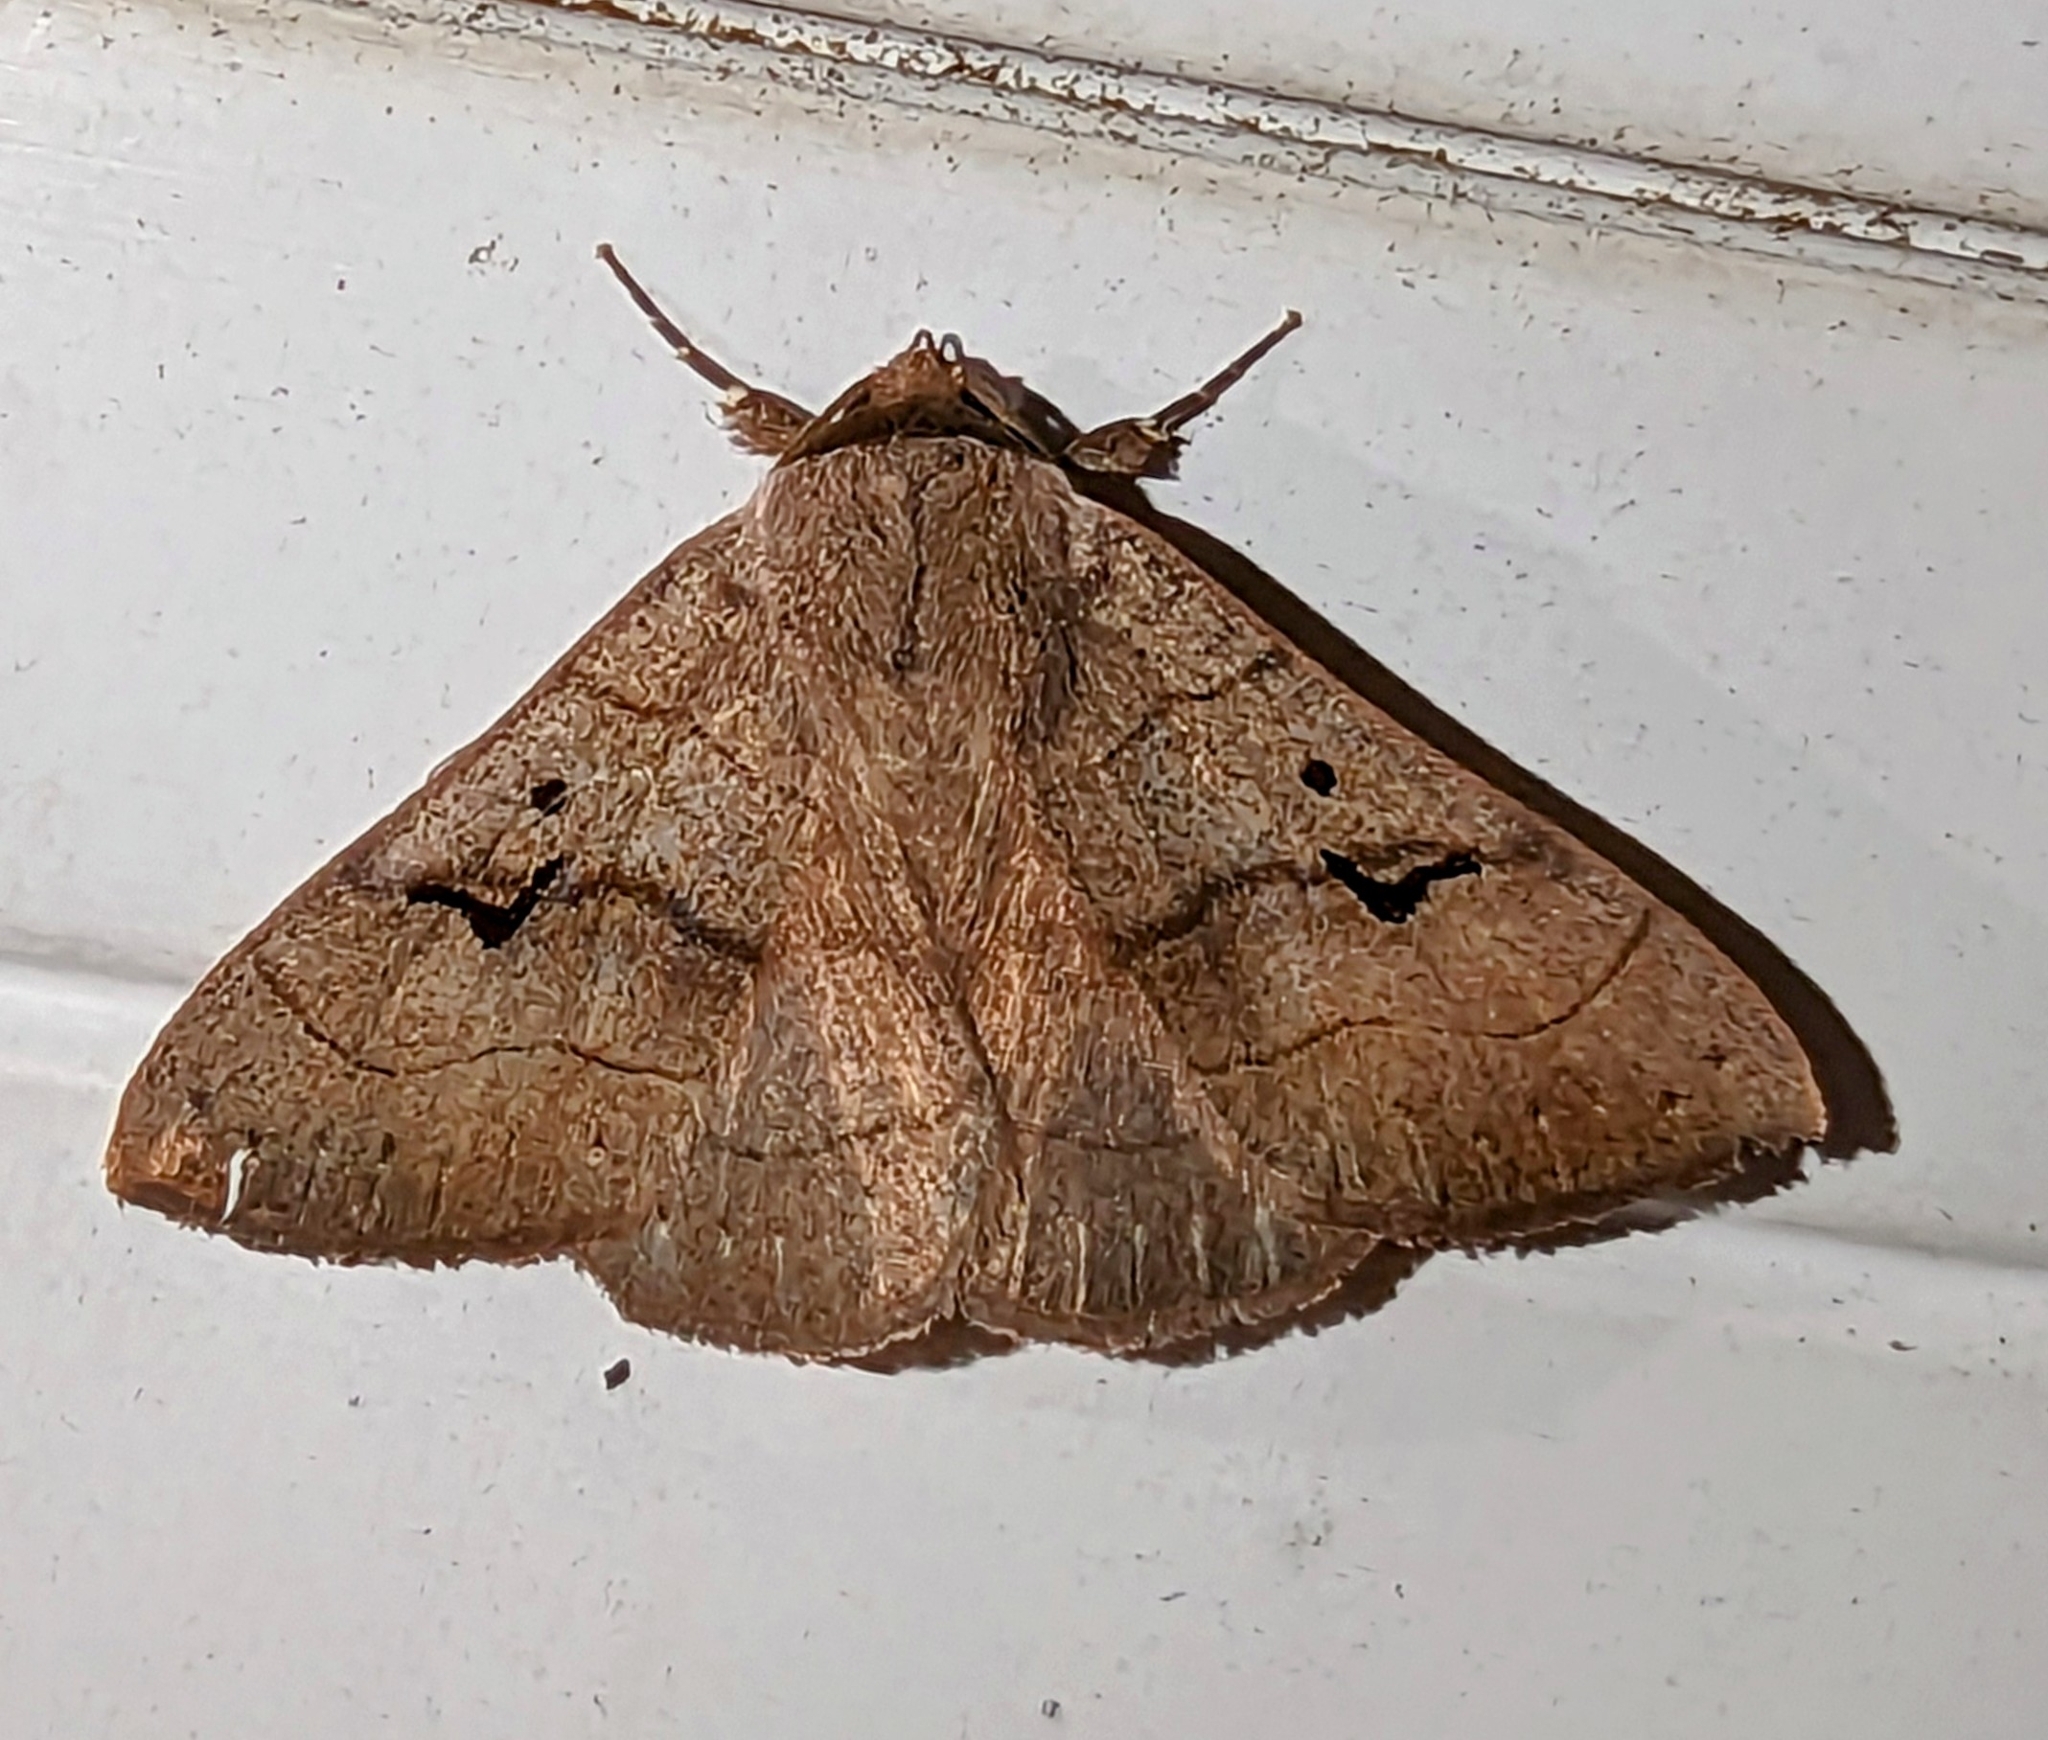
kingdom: Animalia
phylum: Arthropoda
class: Insecta
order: Lepidoptera
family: Erebidae
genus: Panopoda
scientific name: Panopoda carneicosta
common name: Brown panopoda moth
